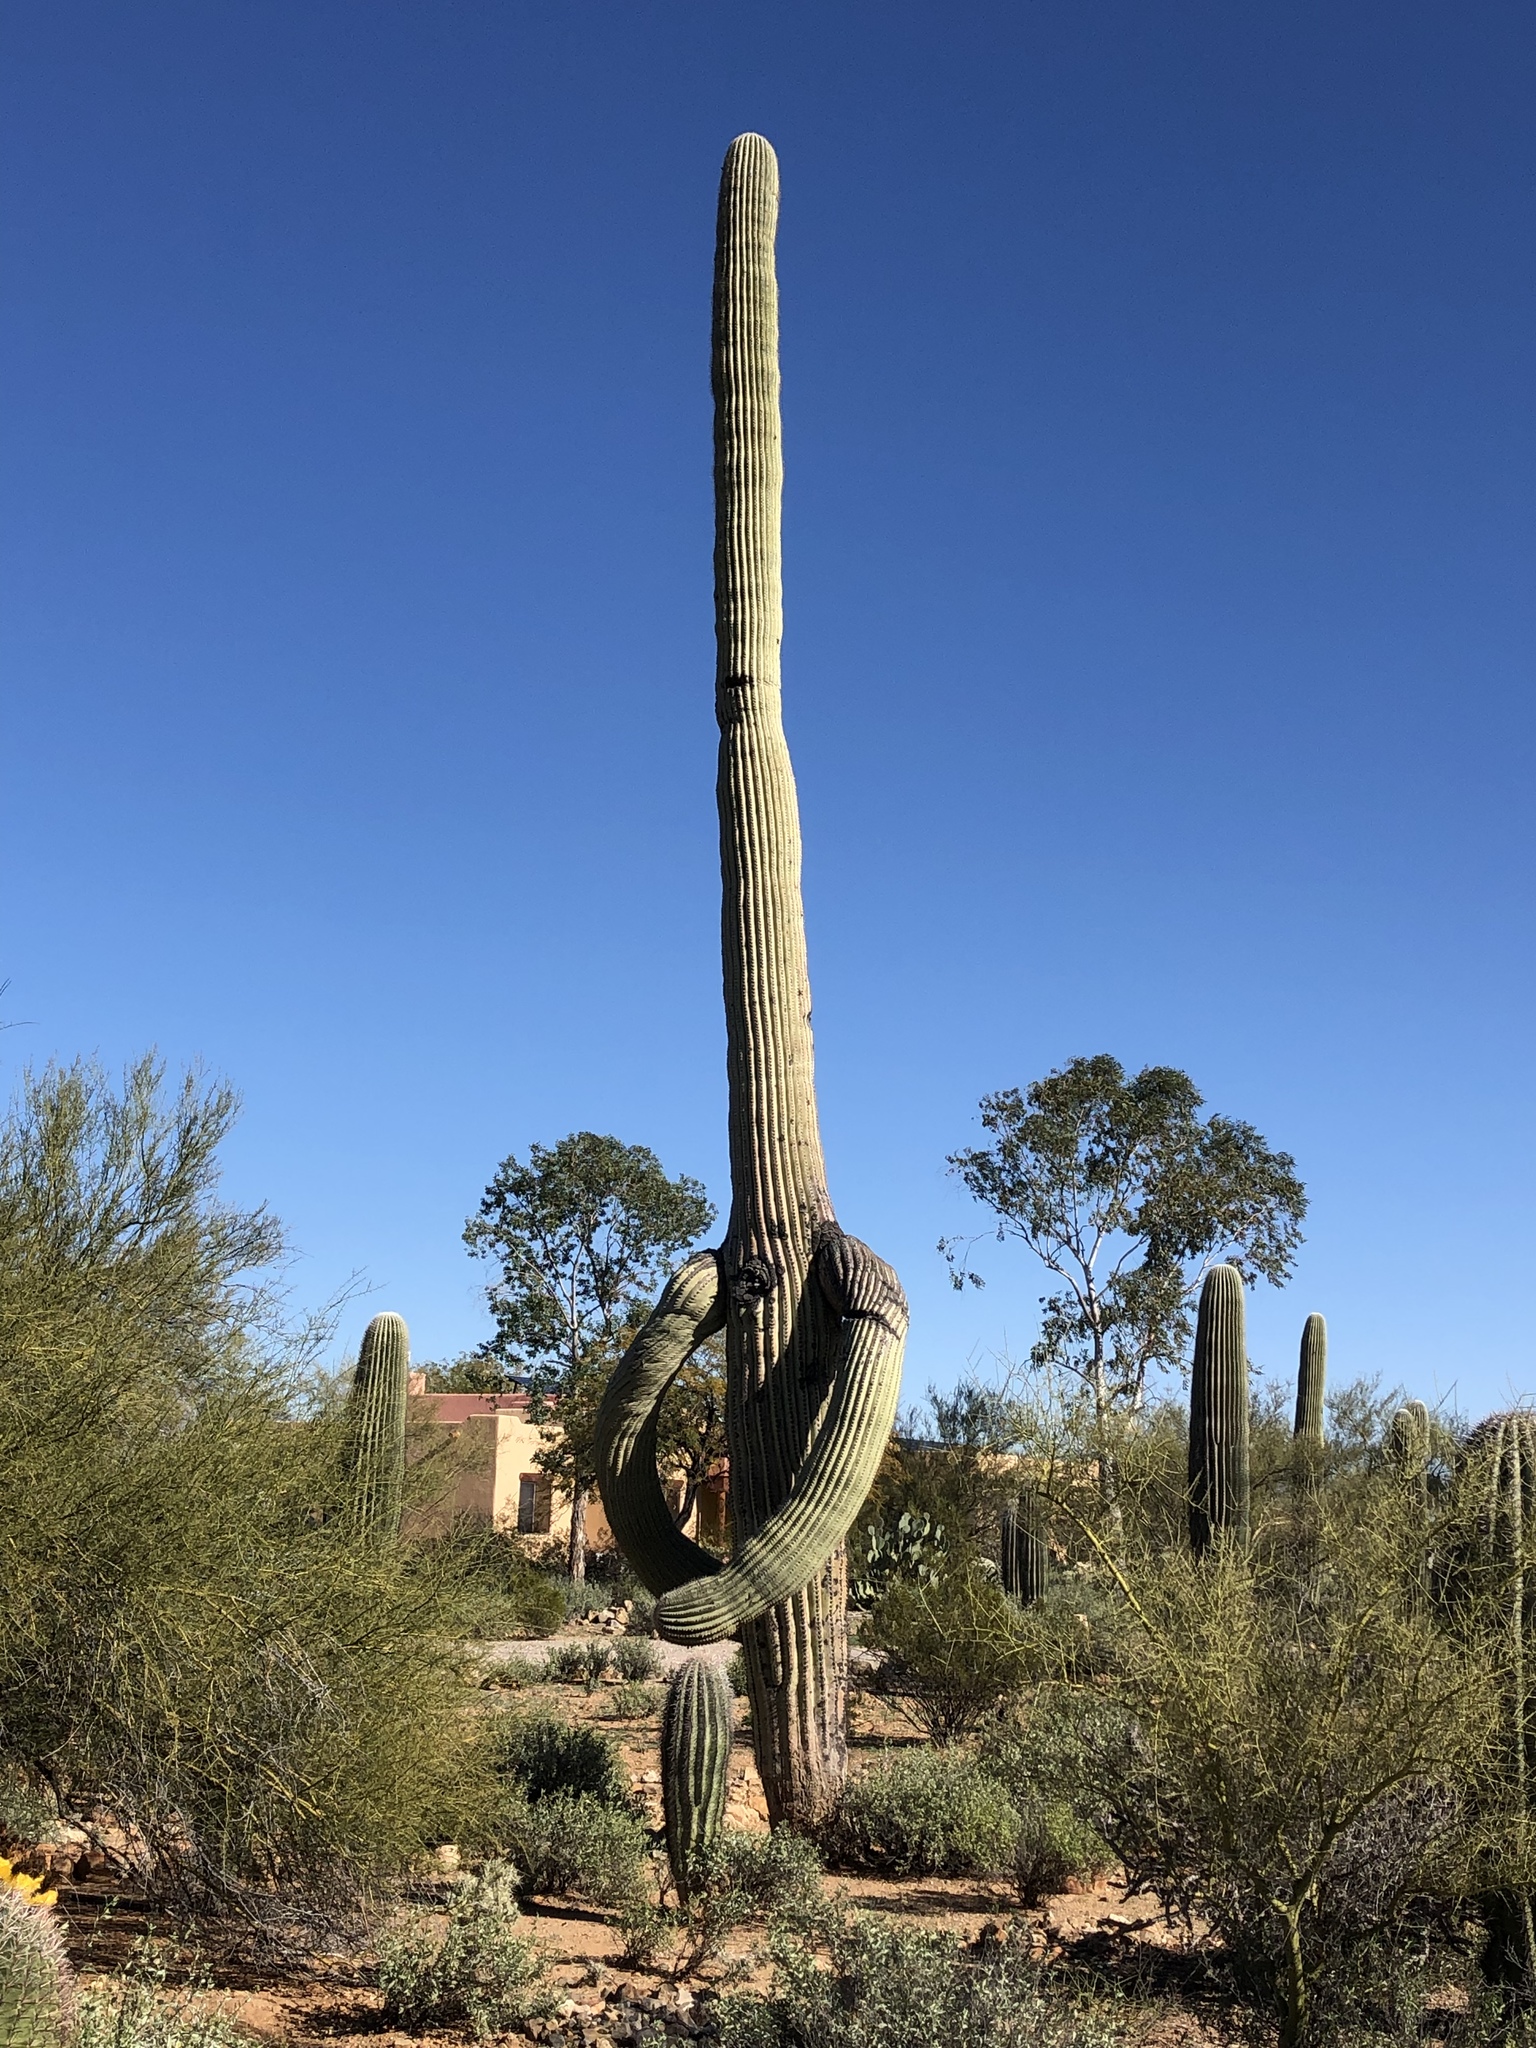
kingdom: Plantae
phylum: Tracheophyta
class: Magnoliopsida
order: Caryophyllales
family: Cactaceae
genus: Carnegiea
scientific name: Carnegiea gigantea
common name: Saguaro
